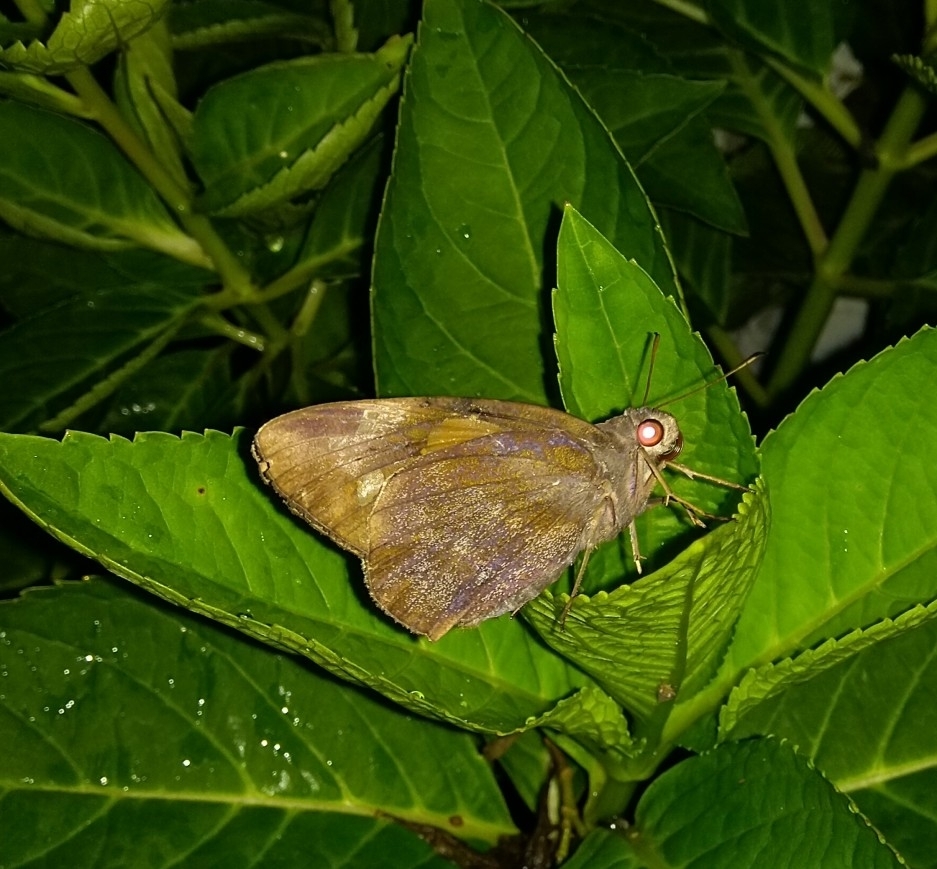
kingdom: Animalia
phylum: Arthropoda
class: Insecta
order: Lepidoptera
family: Hesperiidae
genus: Gangara
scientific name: Gangara thyrsis
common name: Giant redeye
